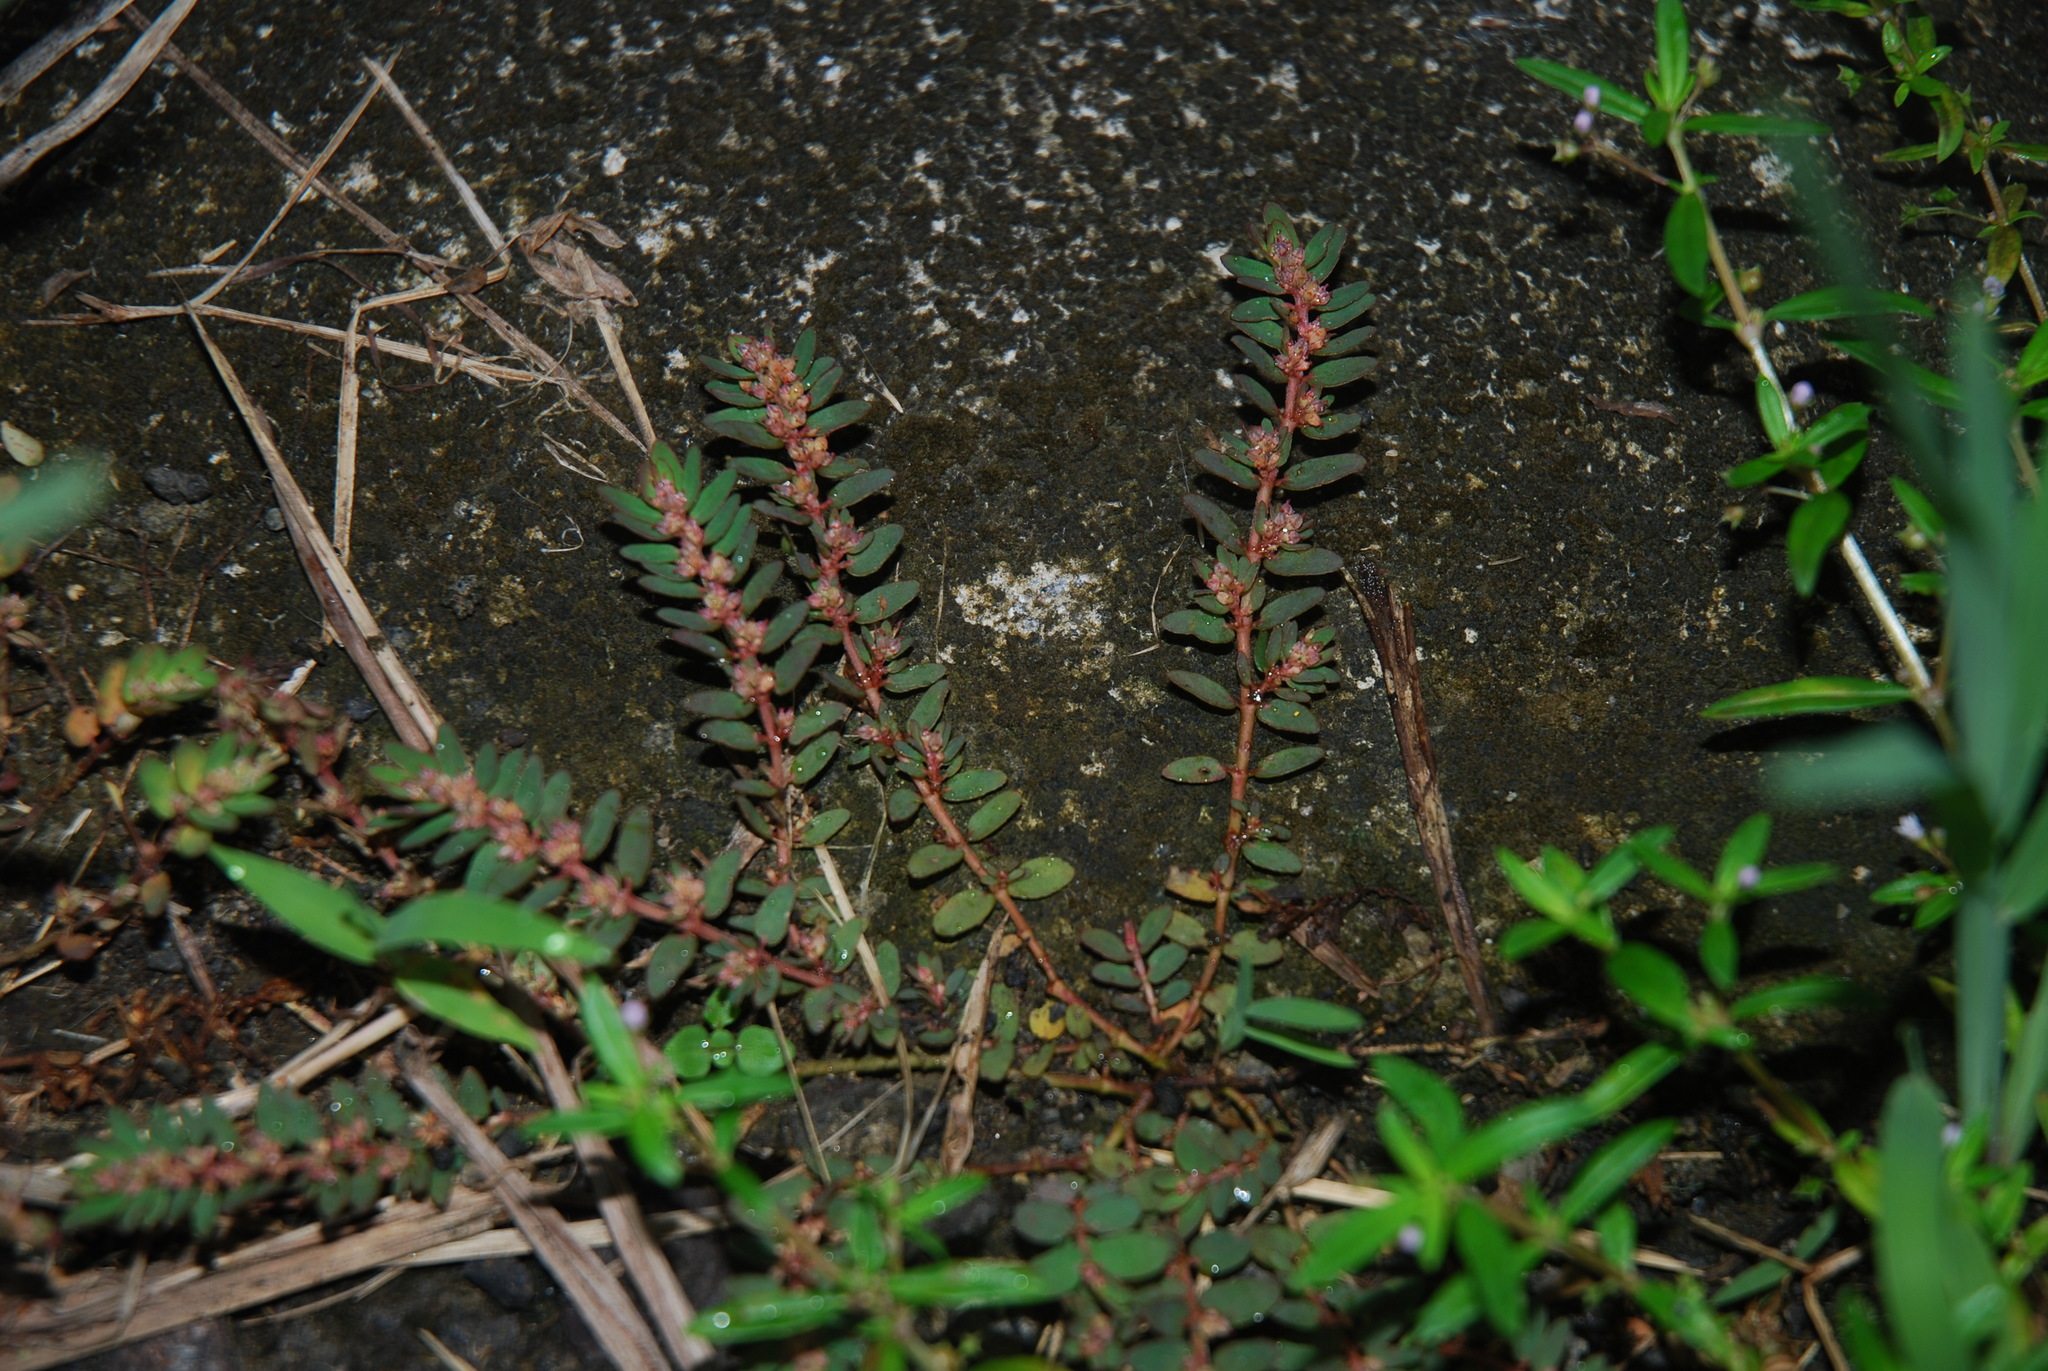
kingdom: Plantae
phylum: Tracheophyta
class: Magnoliopsida
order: Malpighiales
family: Euphorbiaceae
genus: Euphorbia
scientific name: Euphorbia thymifolia
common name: Gulf sandmat
